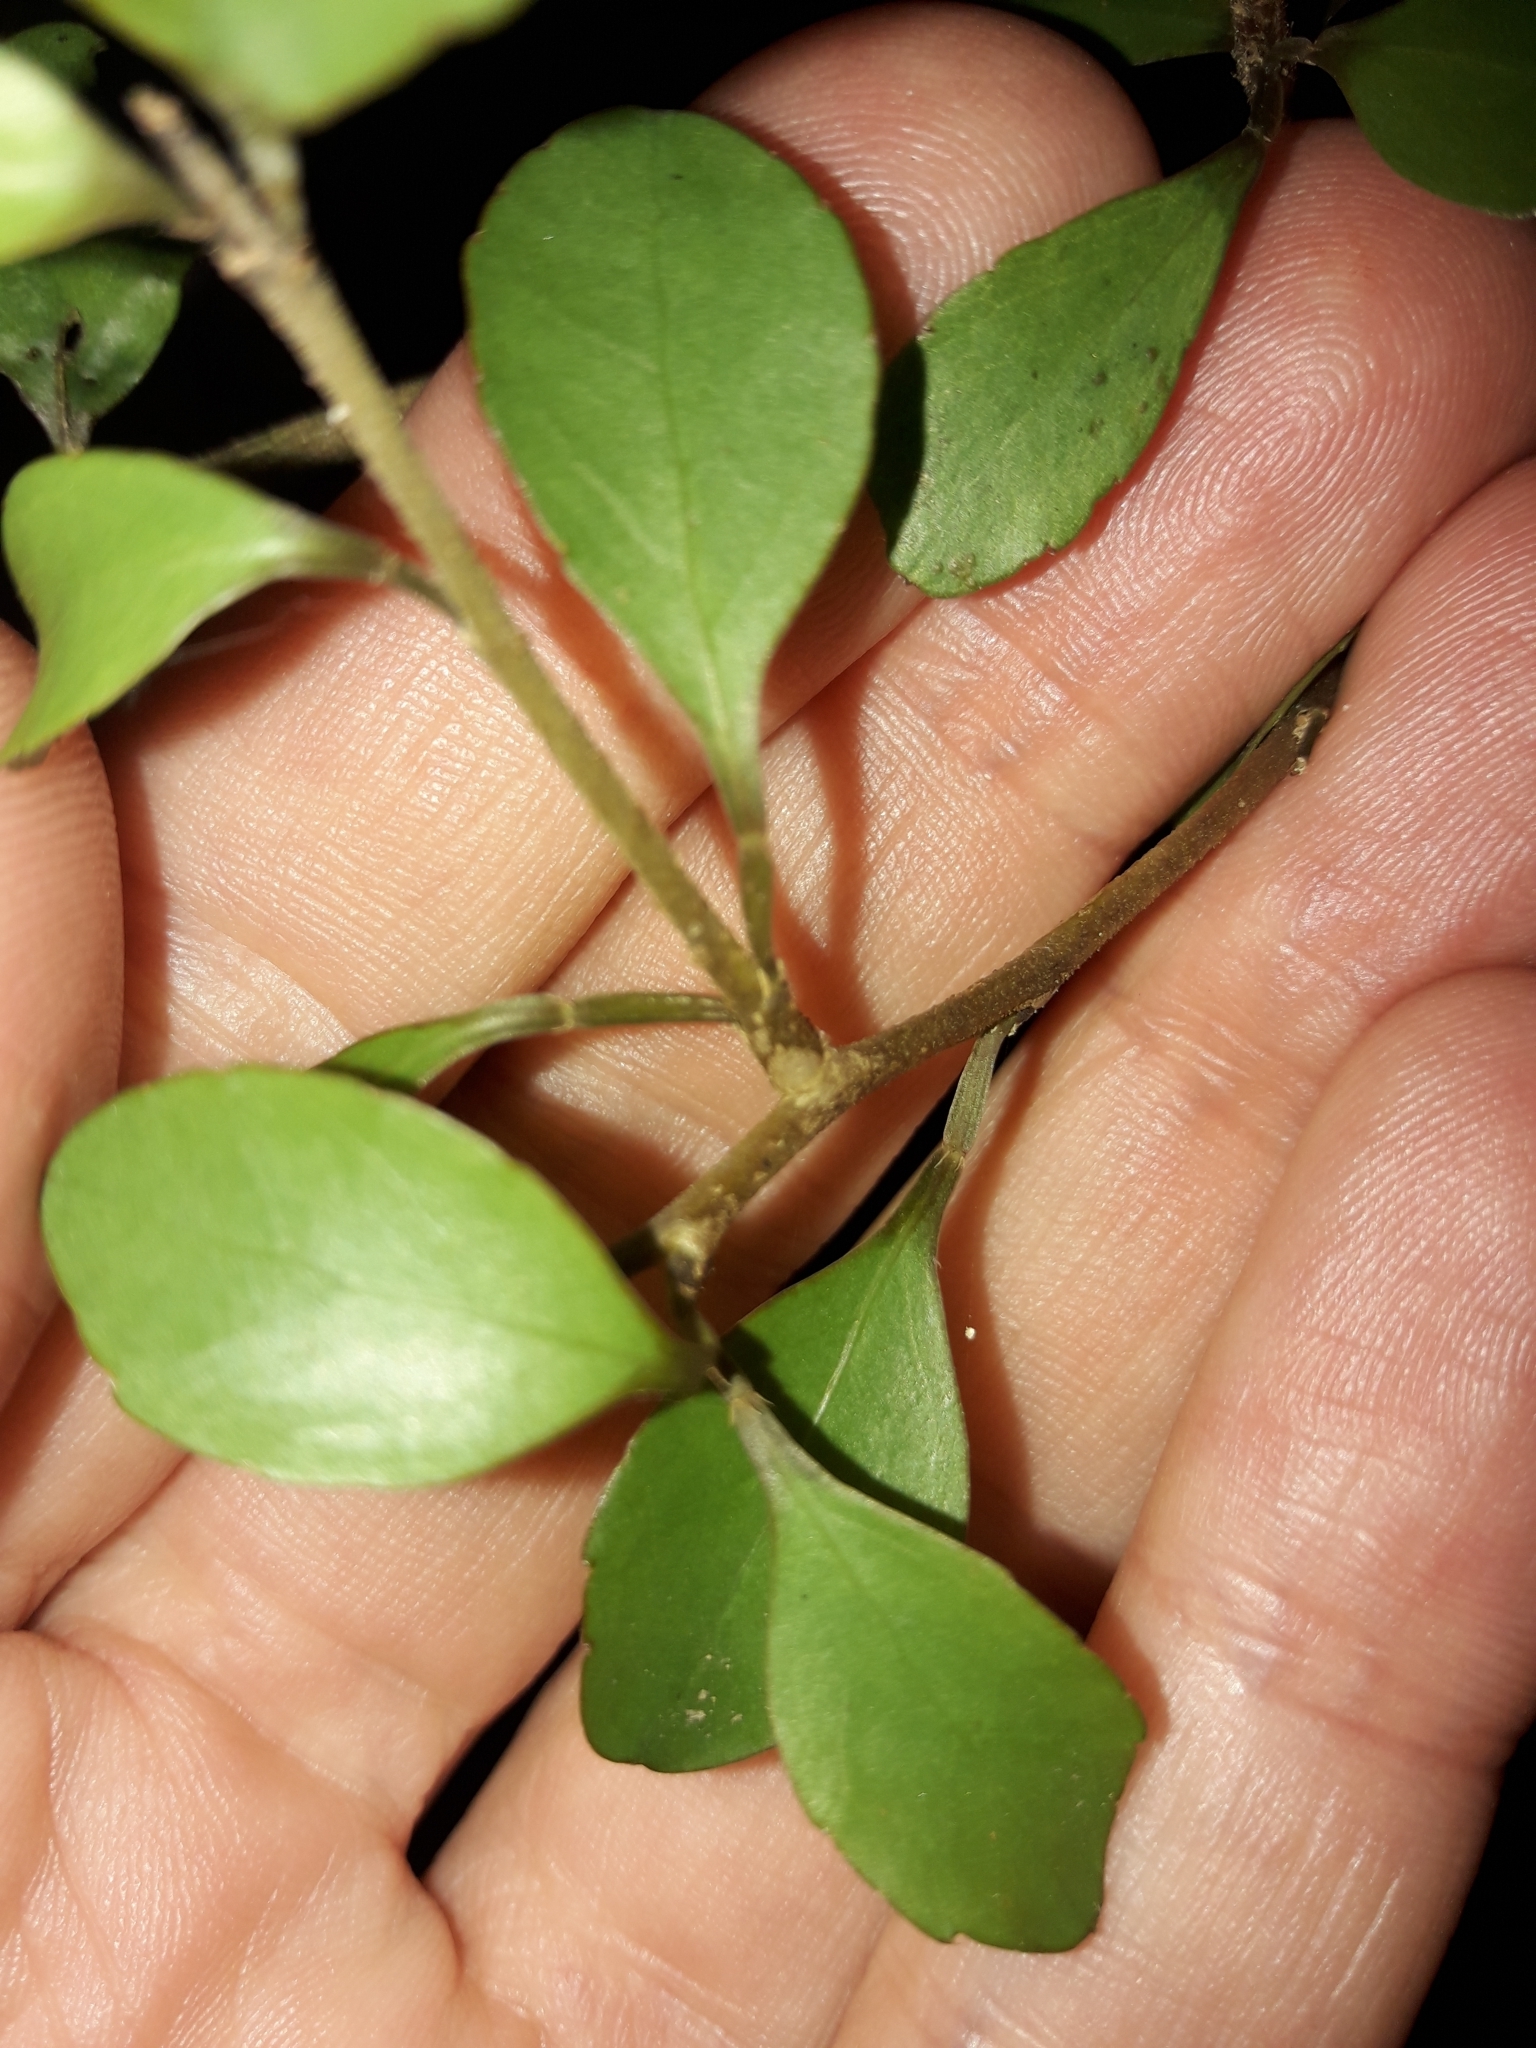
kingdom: Plantae
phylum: Tracheophyta
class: Magnoliopsida
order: Apiales
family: Araliaceae
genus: Raukaua
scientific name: Raukaua anomalus
